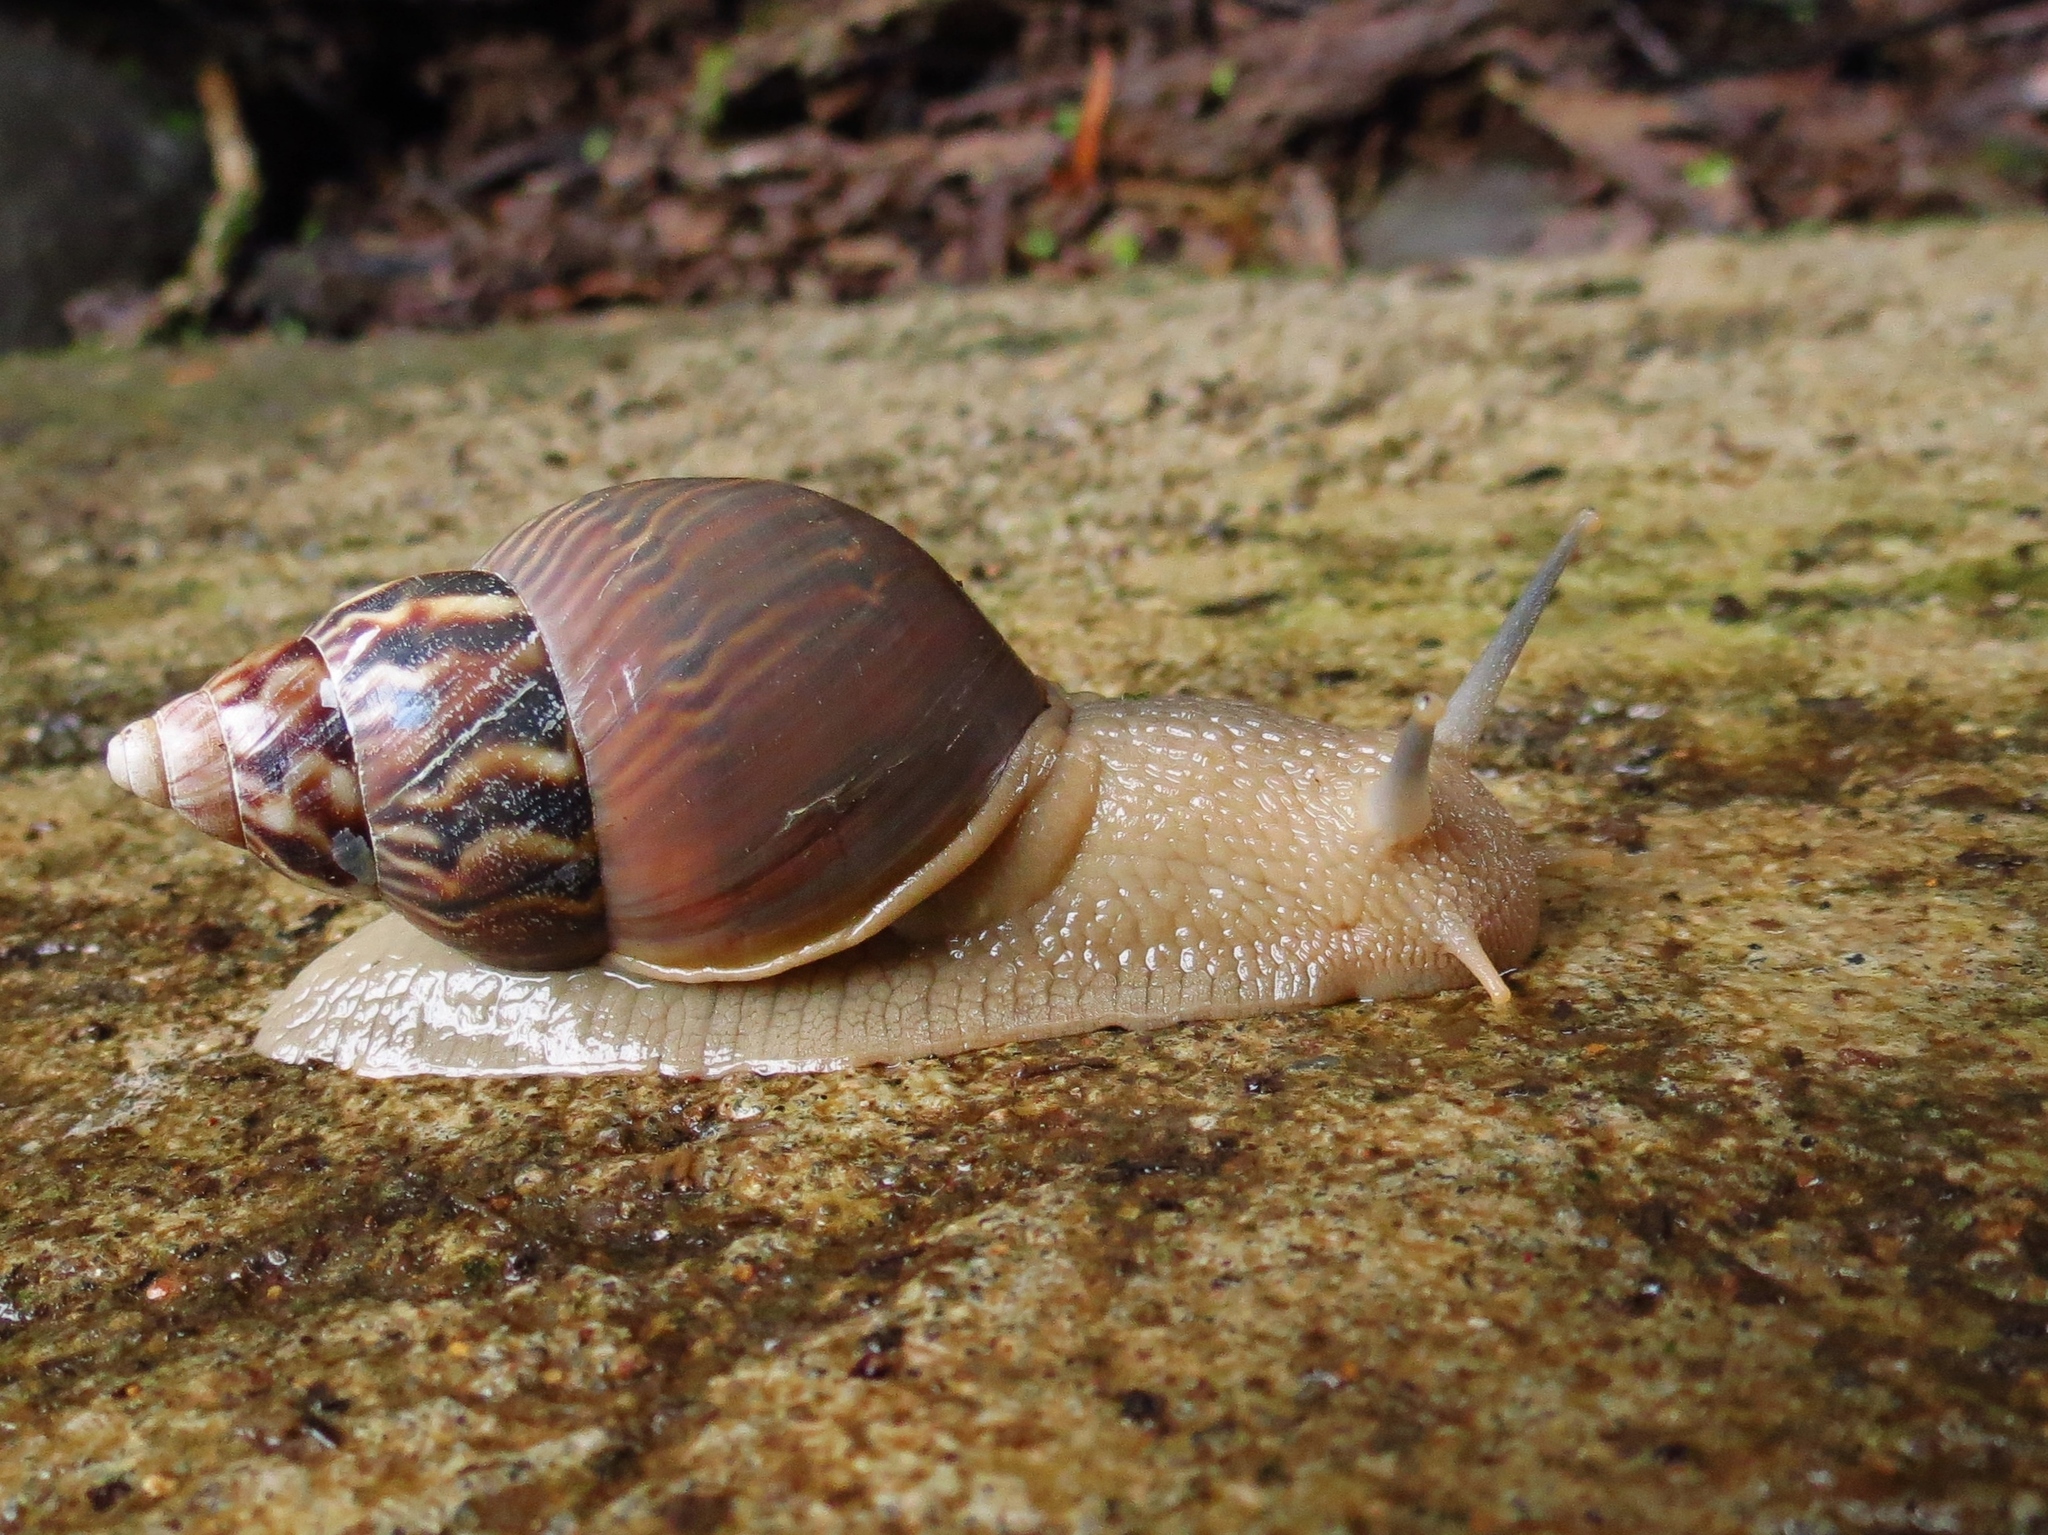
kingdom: Animalia
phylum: Mollusca
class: Gastropoda
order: Stylommatophora
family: Orthalicidae
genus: Orthalicus
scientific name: Orthalicus
